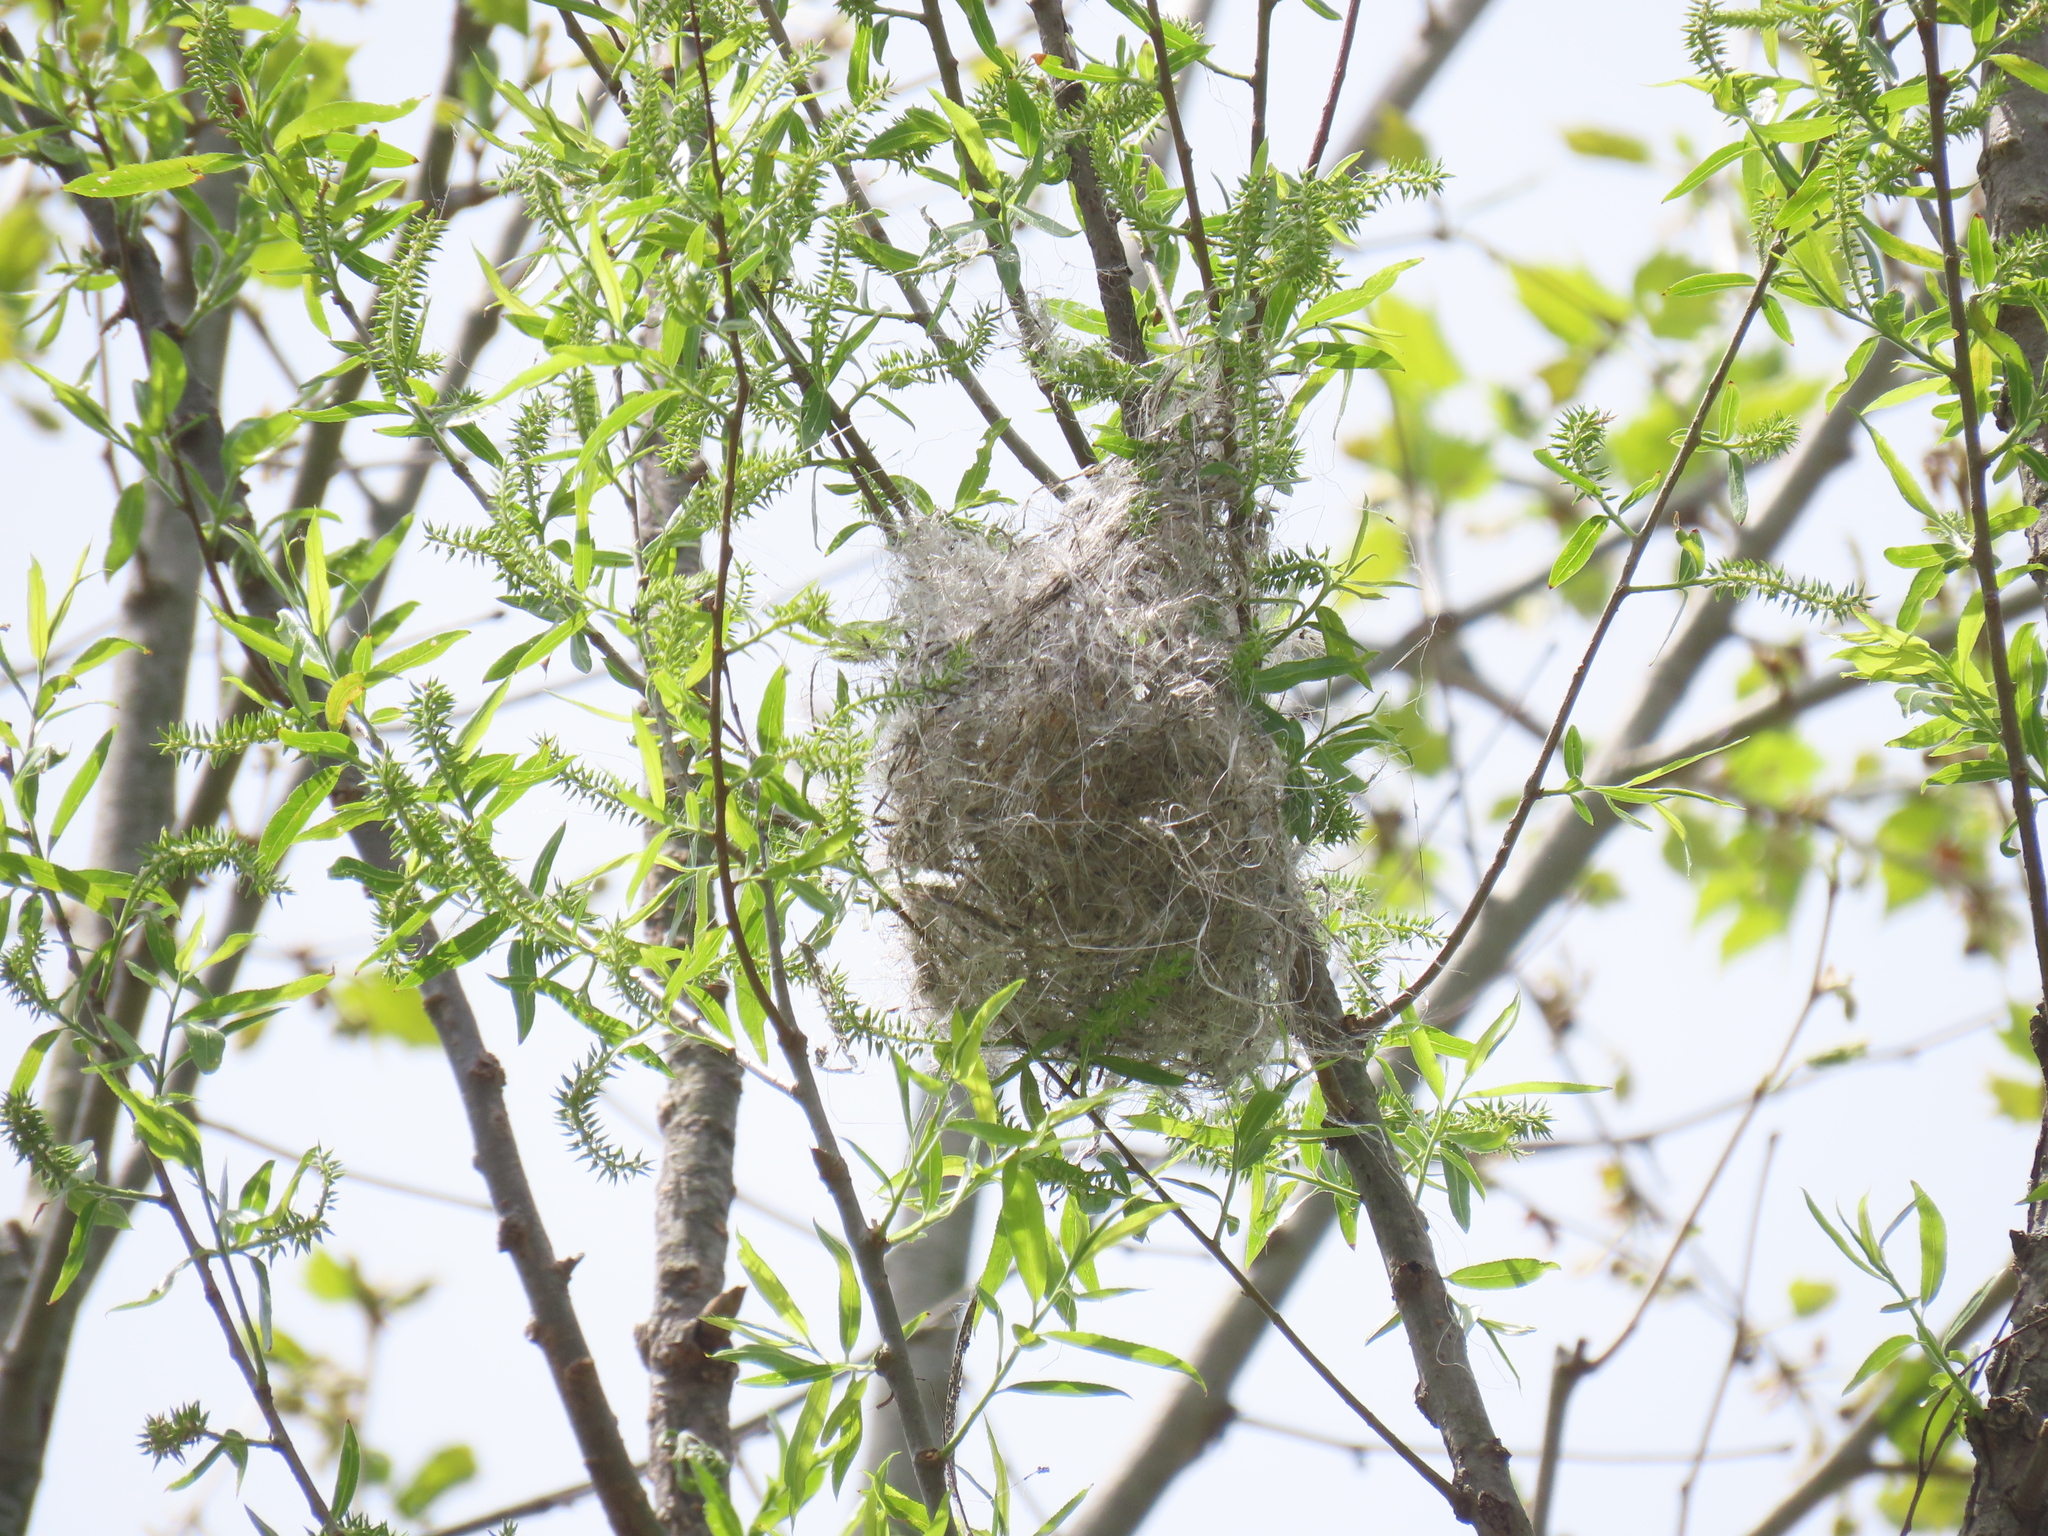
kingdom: Animalia
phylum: Chordata
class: Aves
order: Passeriformes
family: Icteridae
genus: Icterus
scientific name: Icterus galbula
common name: Baltimore oriole
